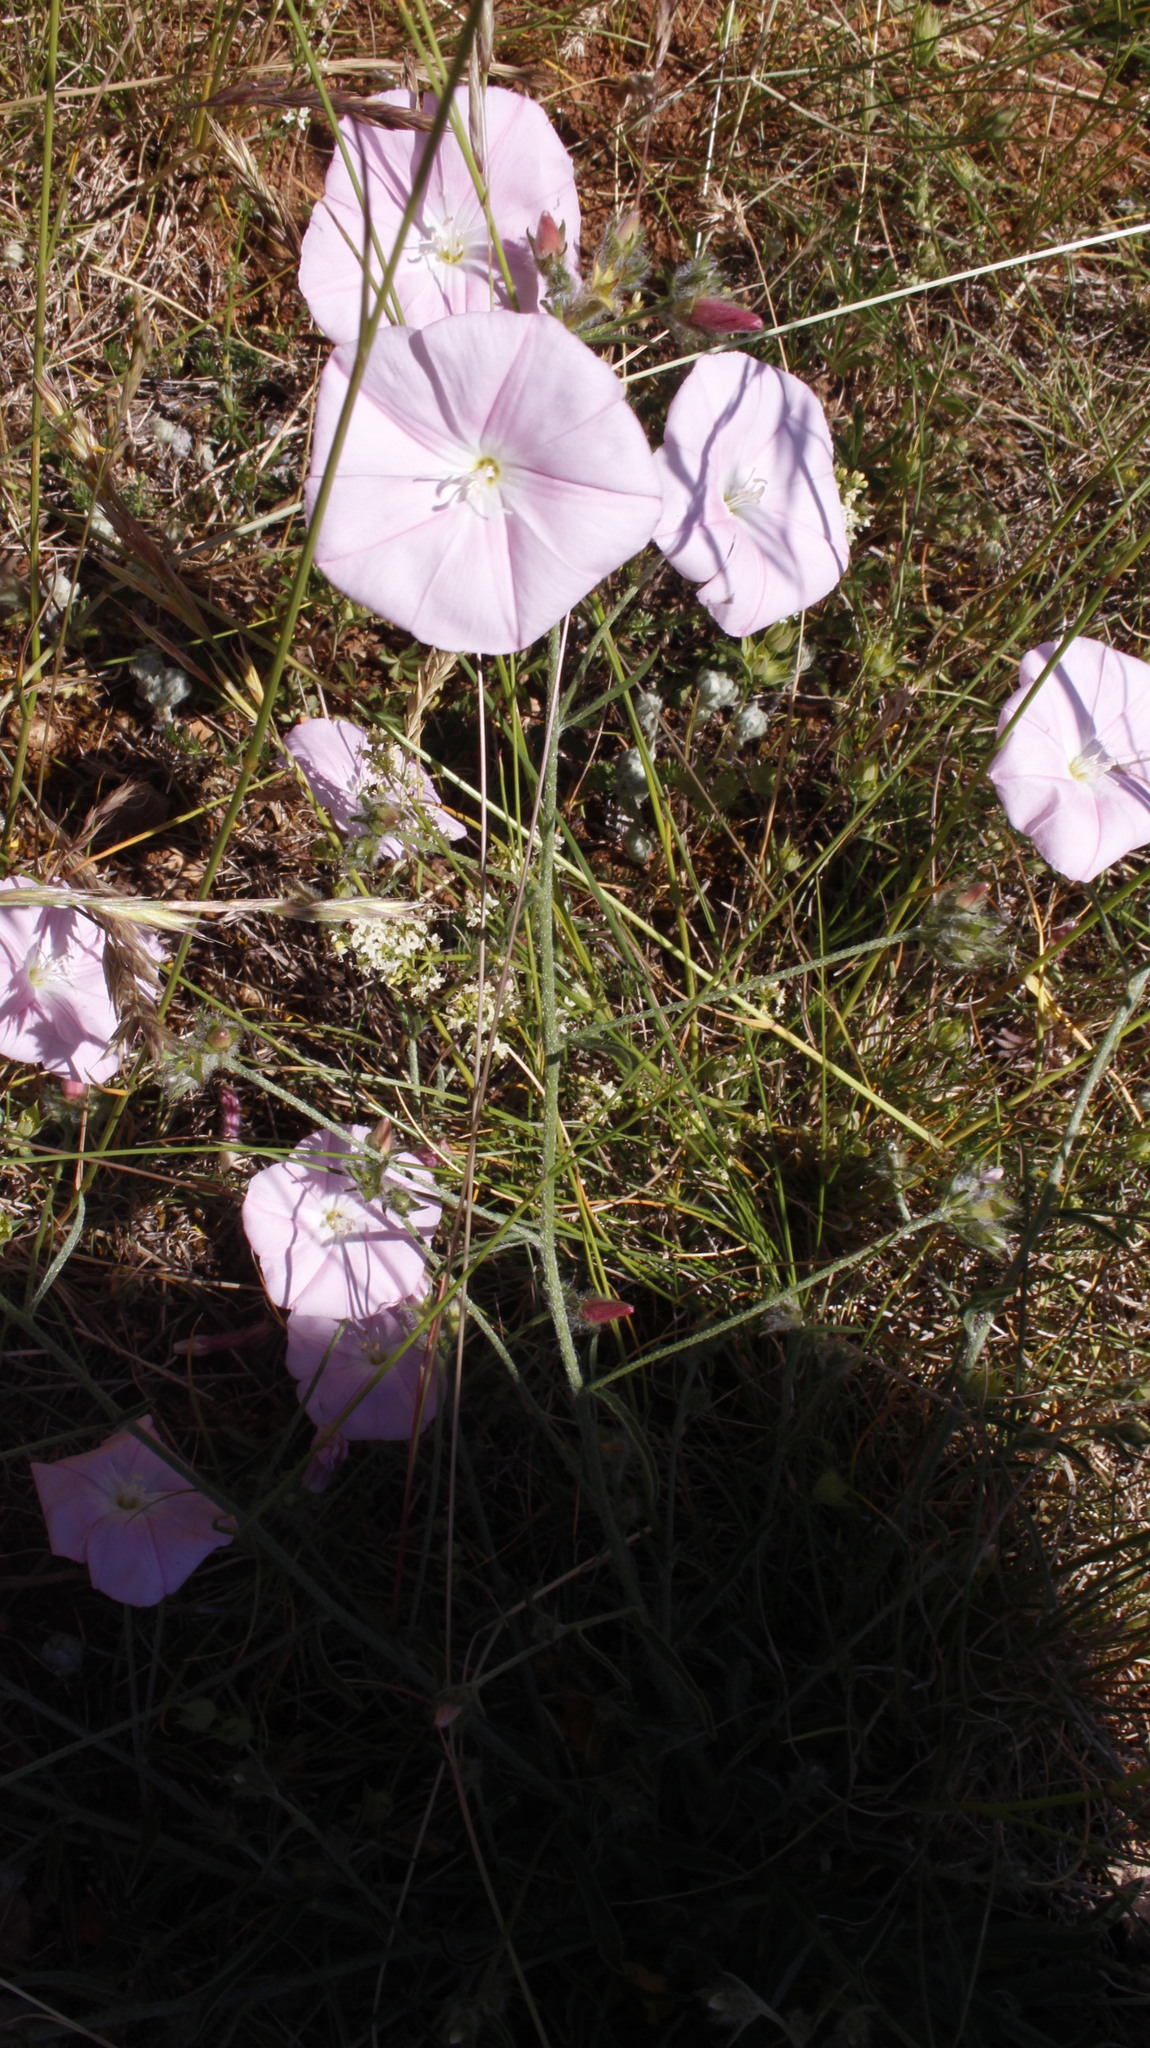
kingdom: Plantae
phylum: Tracheophyta
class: Magnoliopsida
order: Solanales
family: Convolvulaceae
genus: Convolvulus
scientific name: Convolvulus cantabrica
